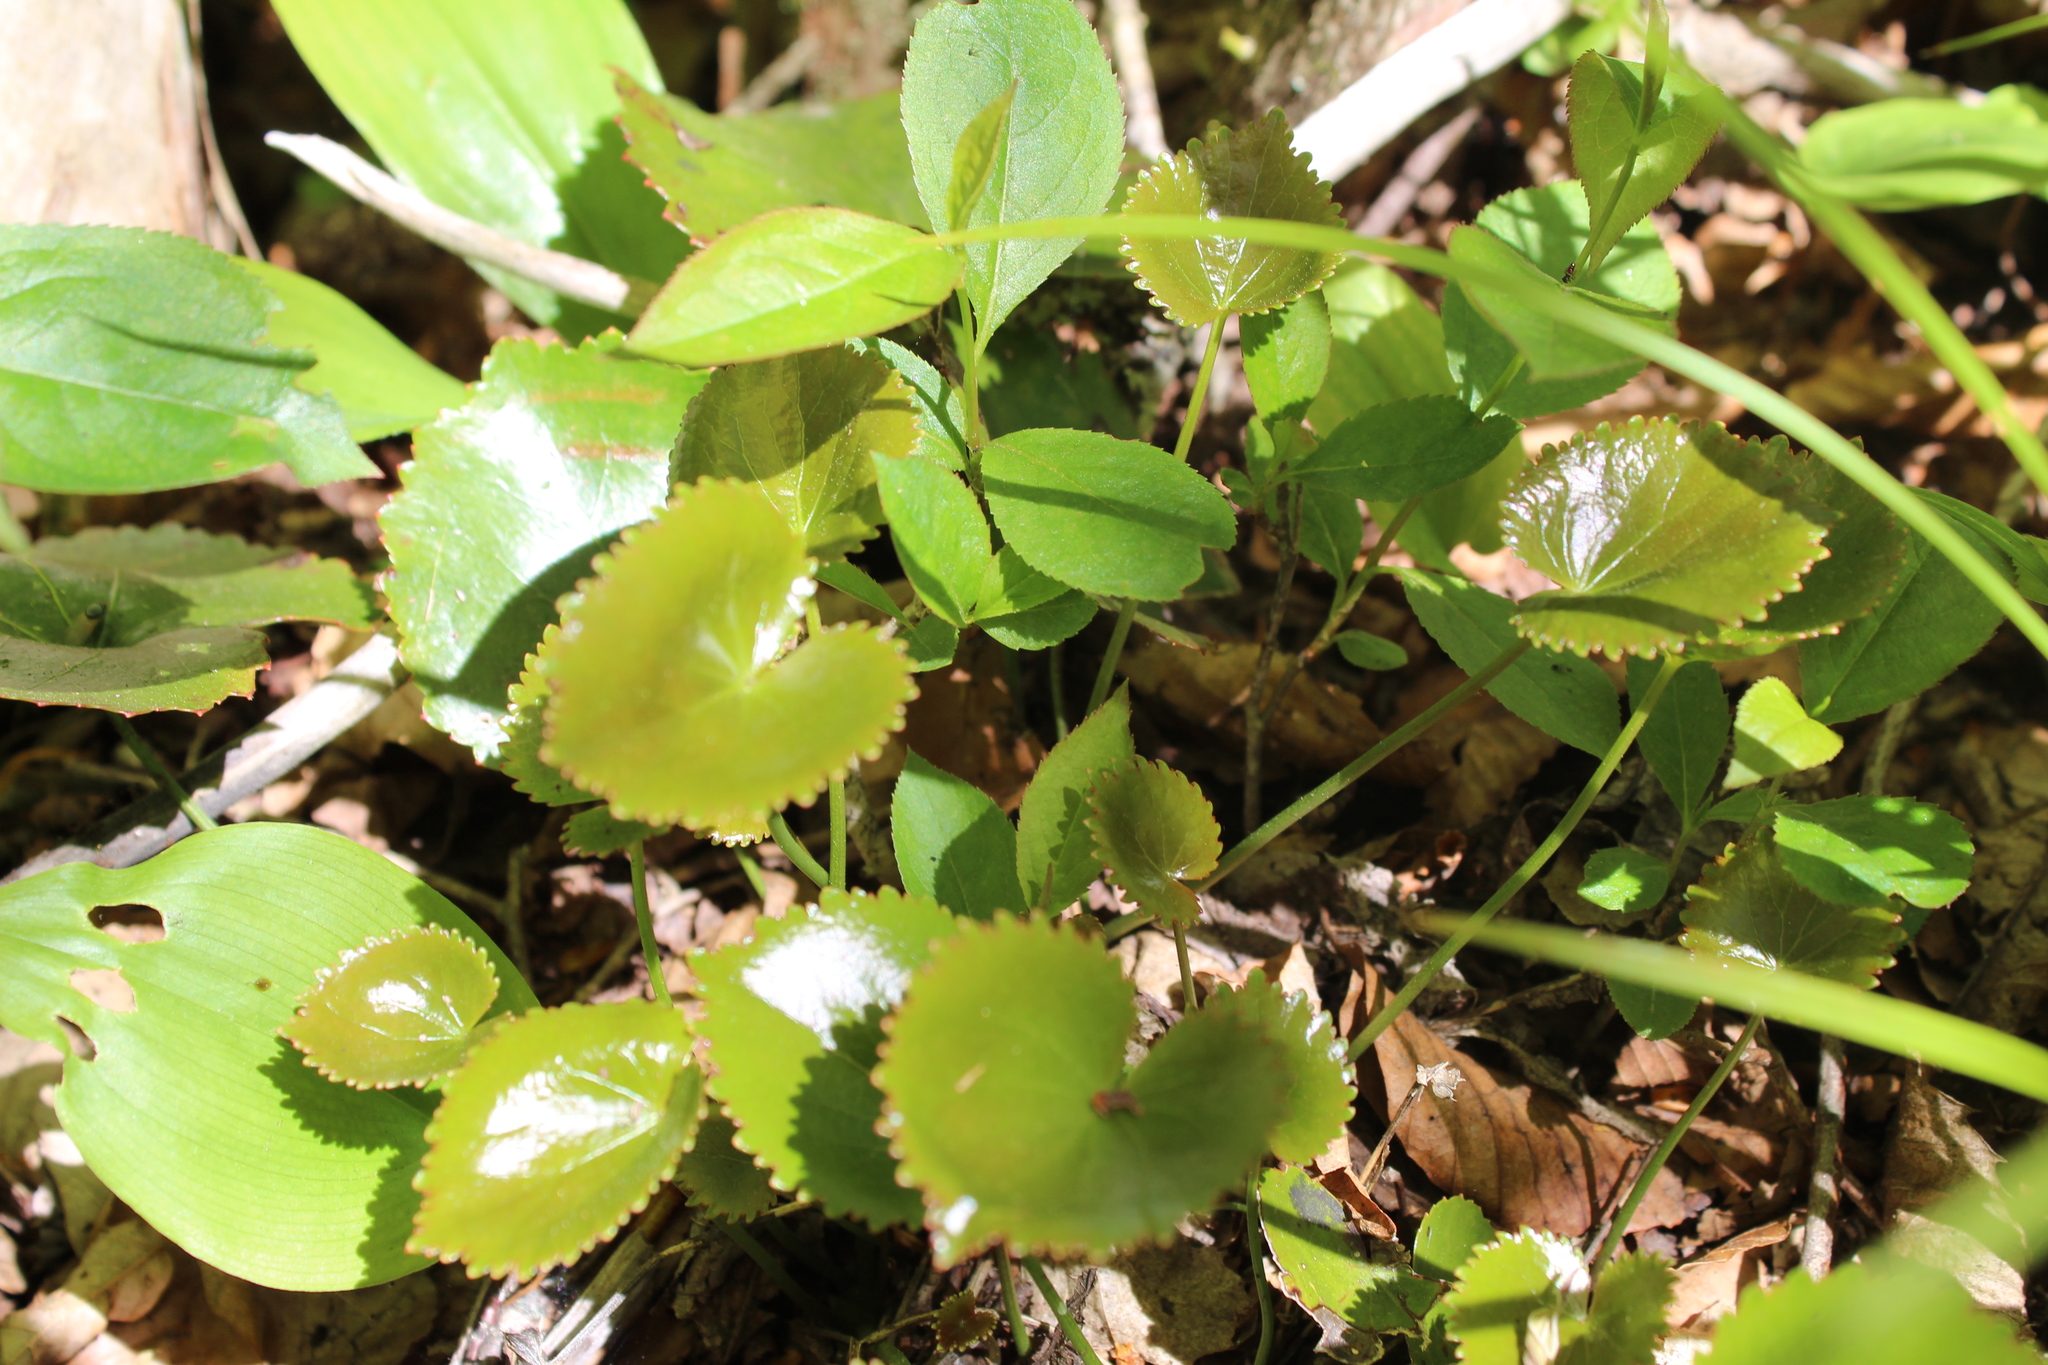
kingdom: Plantae
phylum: Tracheophyta
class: Magnoliopsida
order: Ericales
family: Diapensiaceae
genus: Galax
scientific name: Galax urceolata
